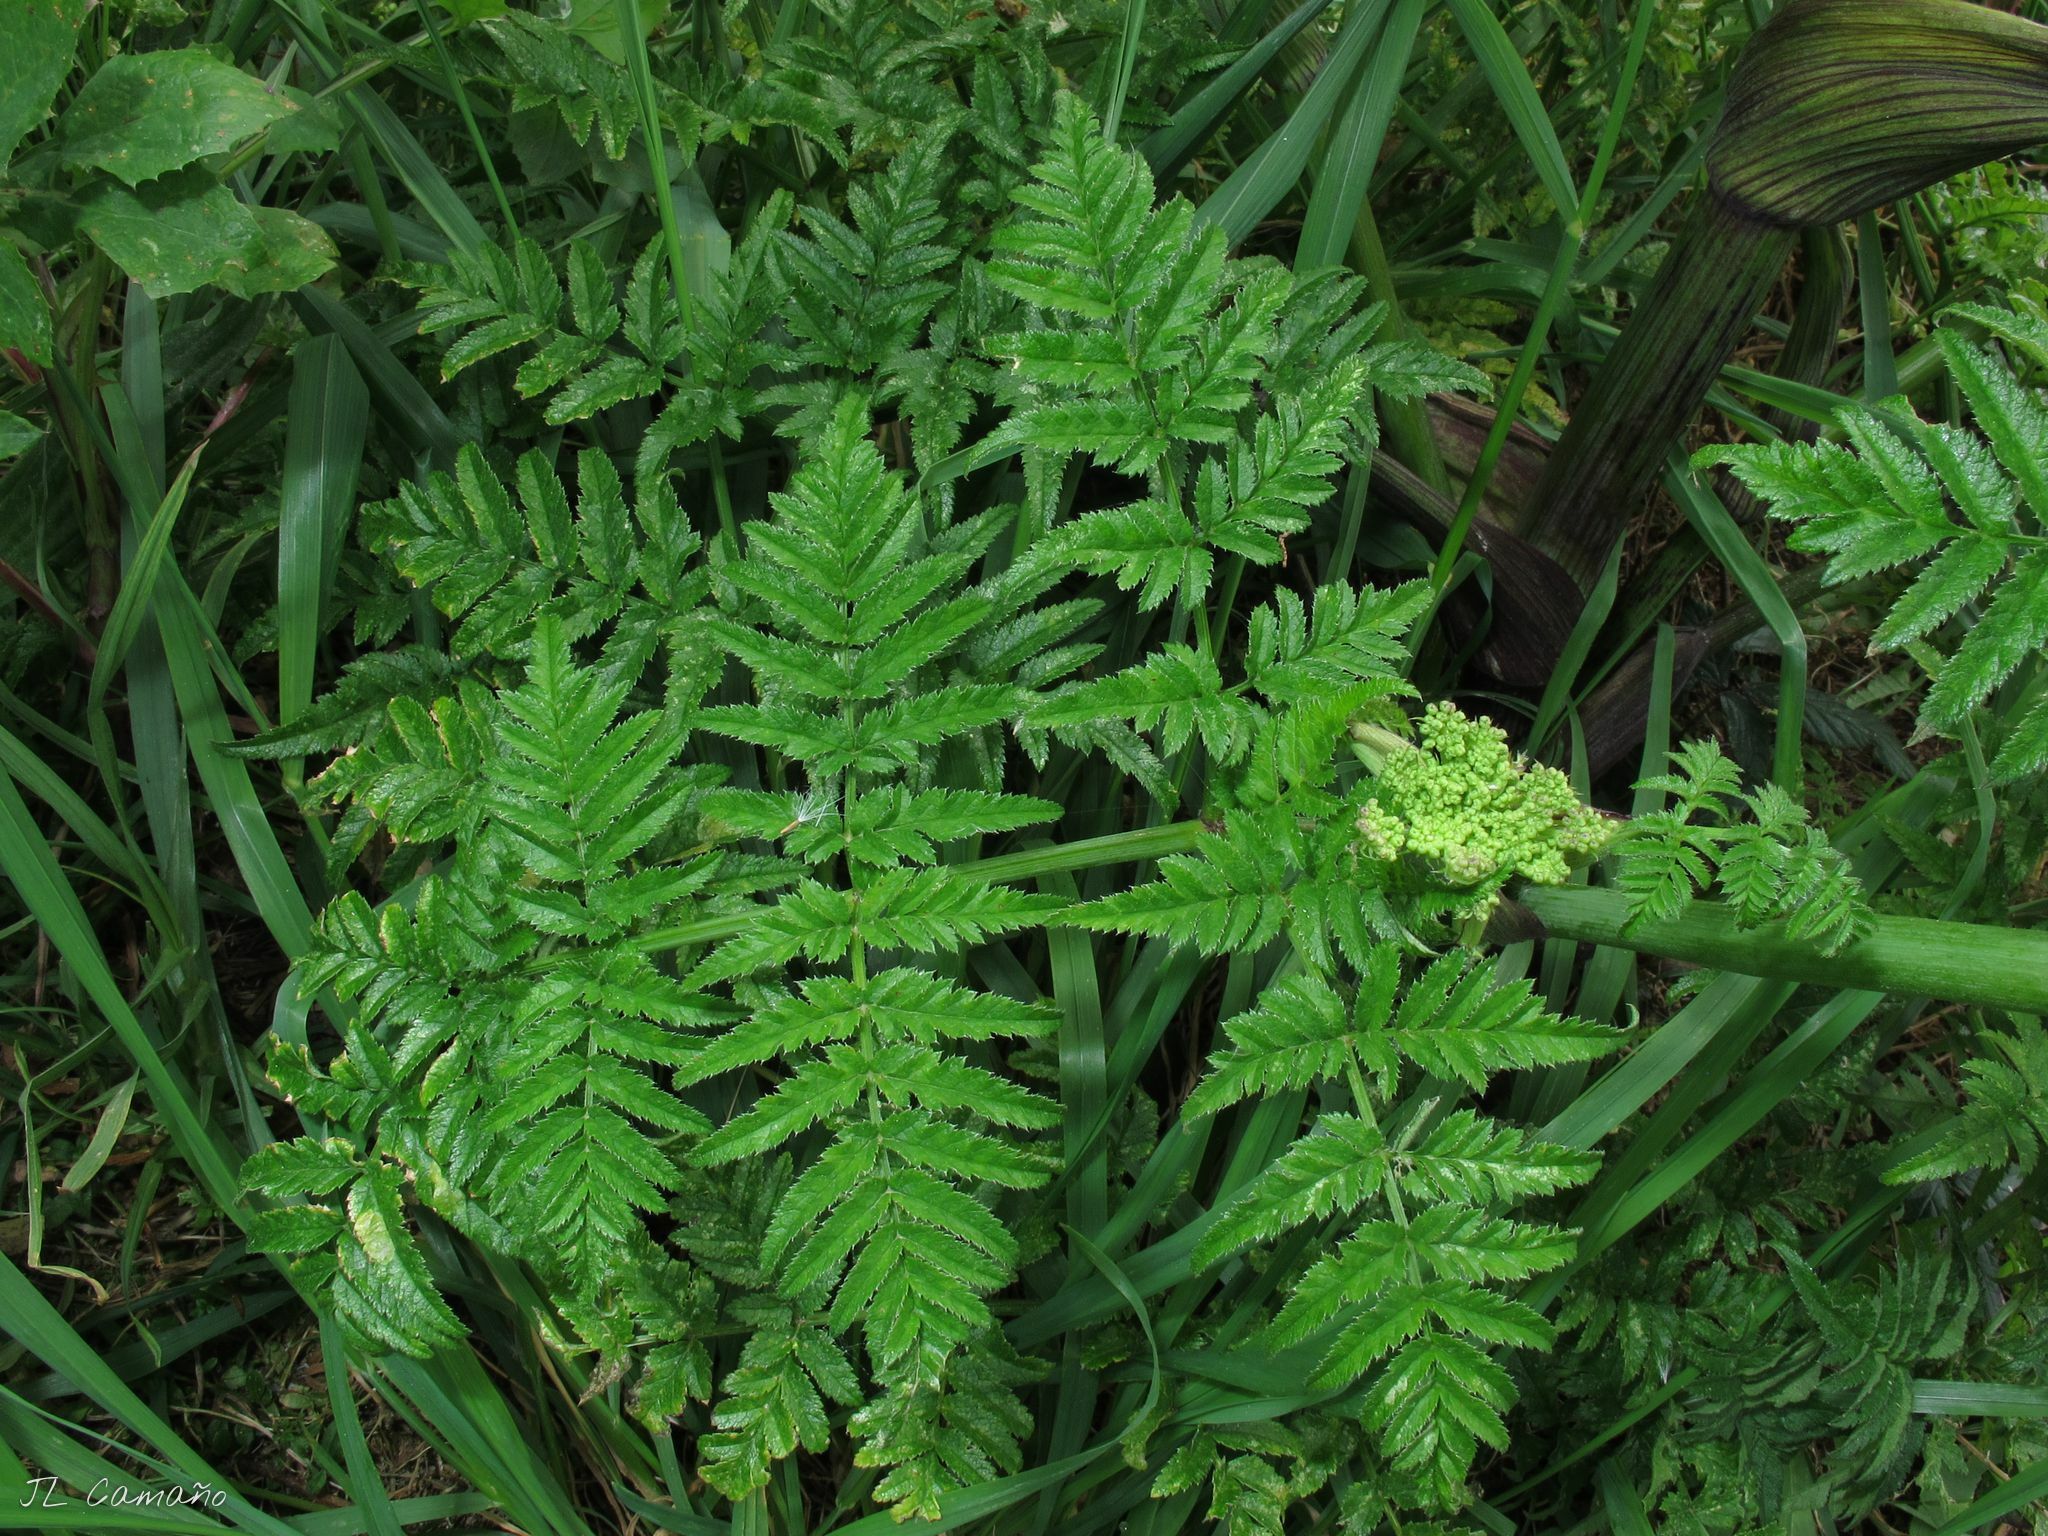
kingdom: Plantae
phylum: Tracheophyta
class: Magnoliopsida
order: Apiales
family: Apiaceae
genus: Angelica
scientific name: Angelica major
